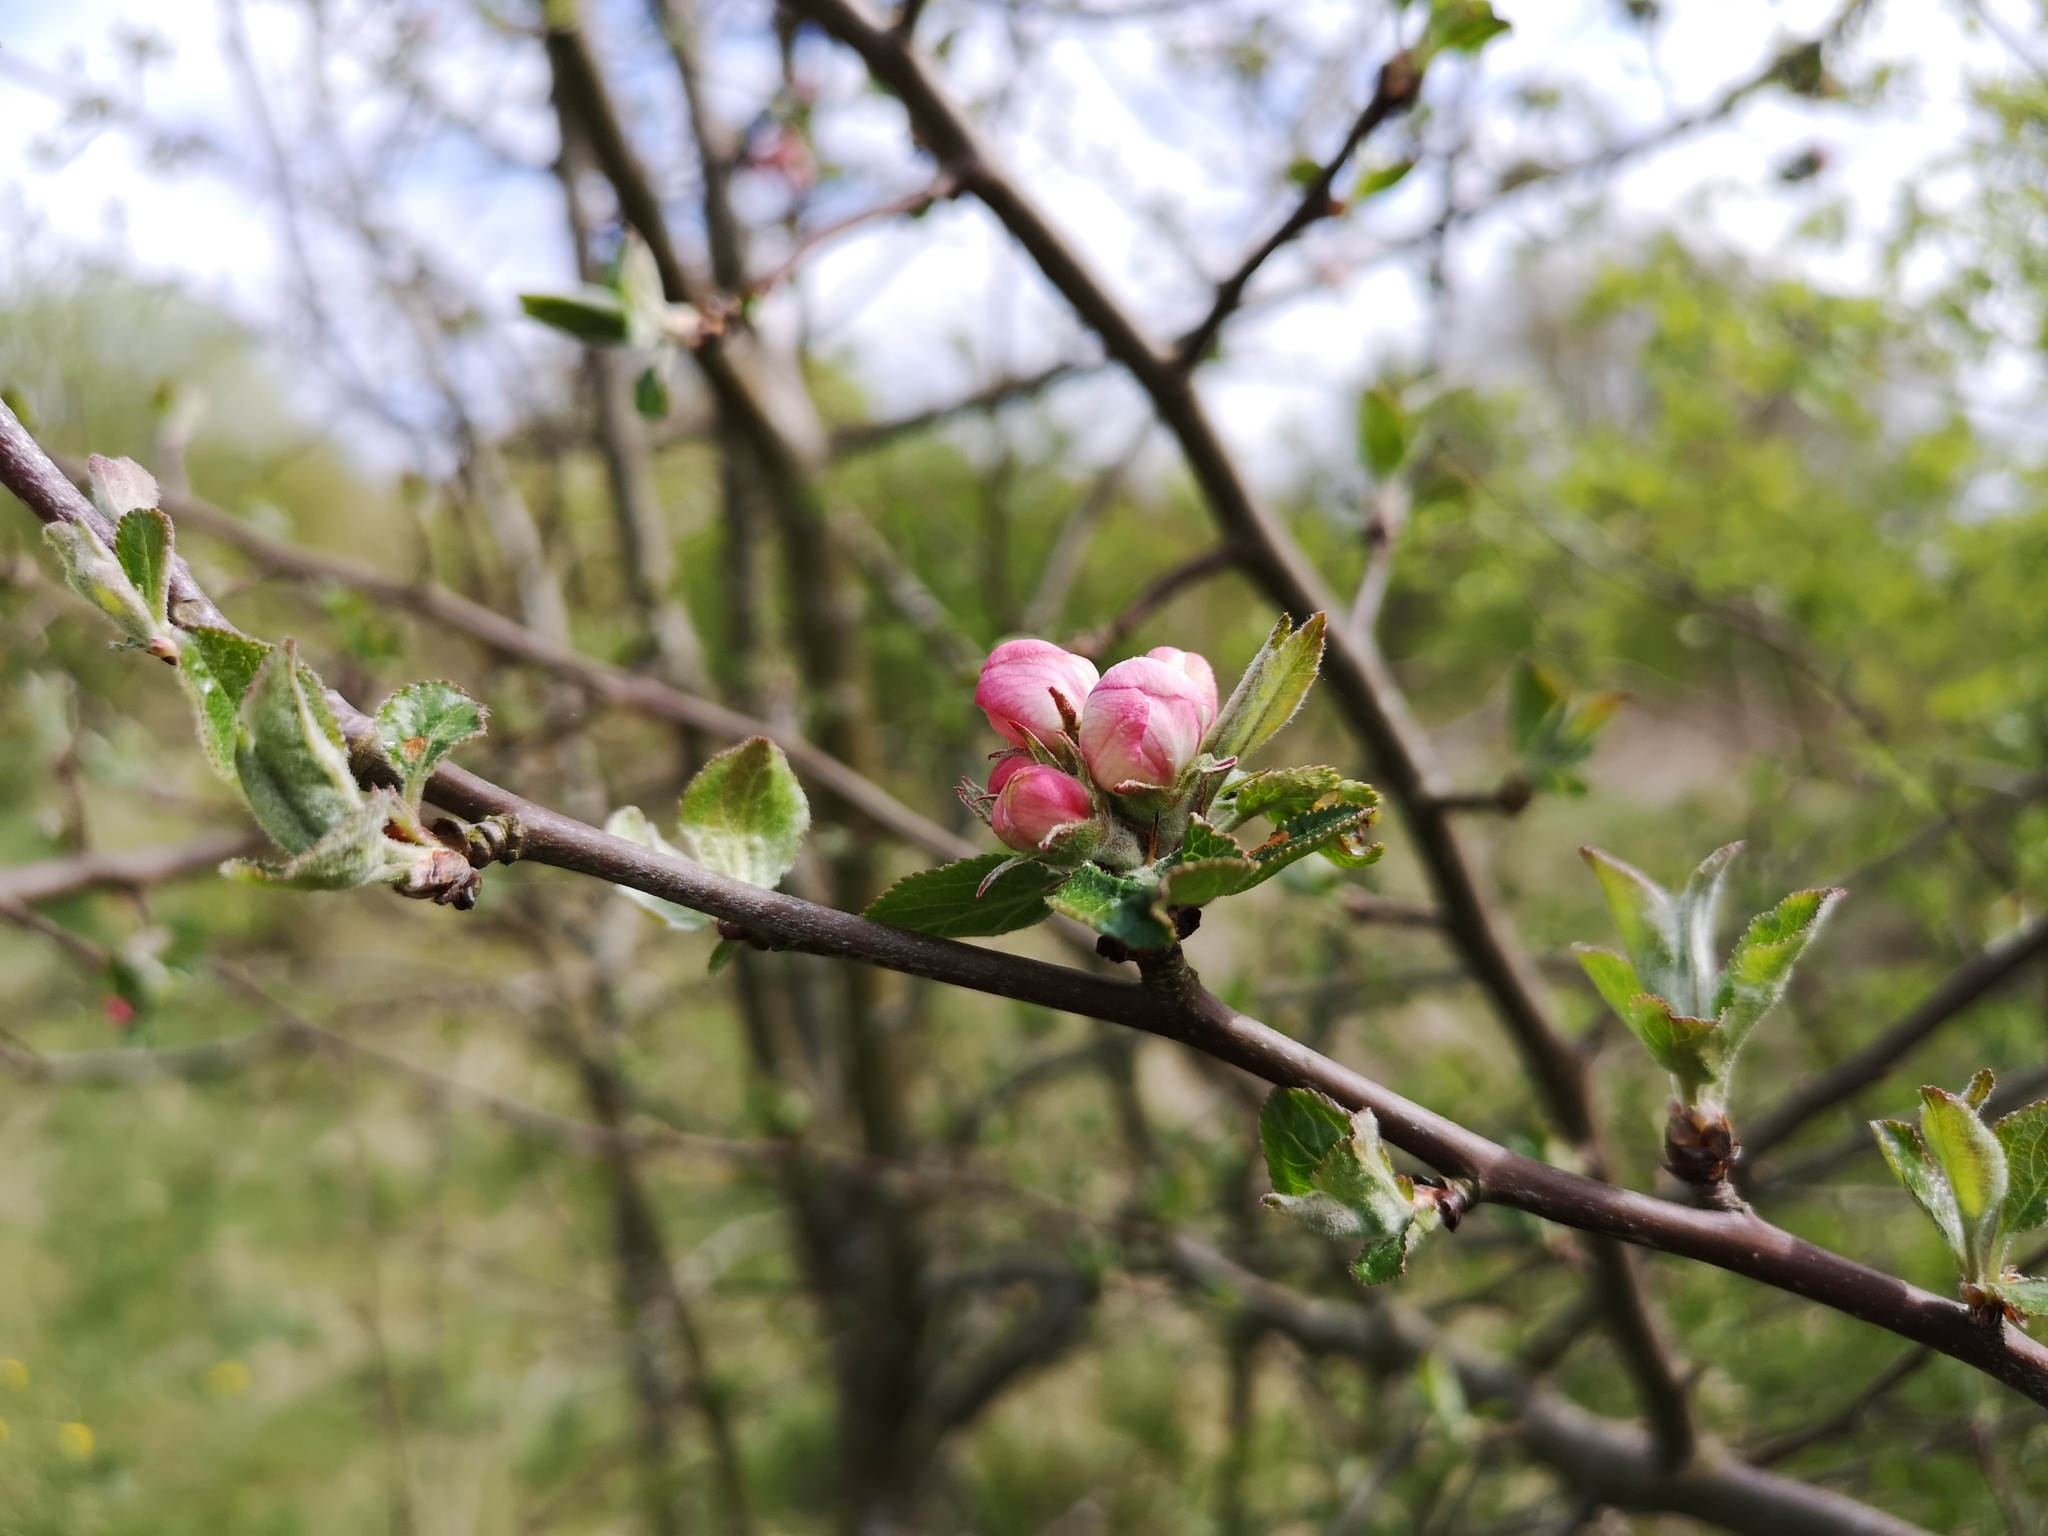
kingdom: Plantae
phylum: Tracheophyta
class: Magnoliopsida
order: Rosales
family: Rosaceae
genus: Malus
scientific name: Malus domestica
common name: Apple
